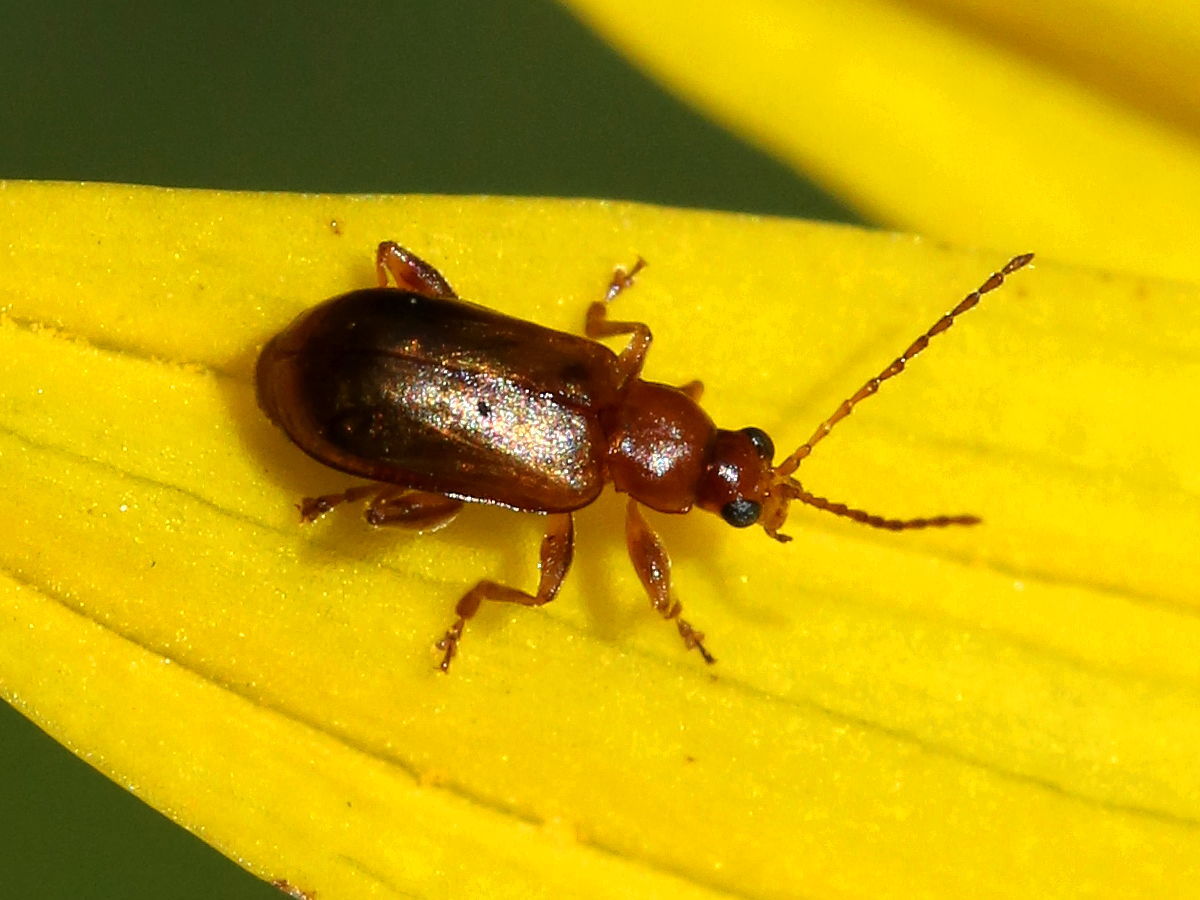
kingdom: Animalia
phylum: Arthropoda
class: Insecta
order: Coleoptera
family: Chrysomelidae
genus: Luperaltica
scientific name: Luperaltica nigripalpis
